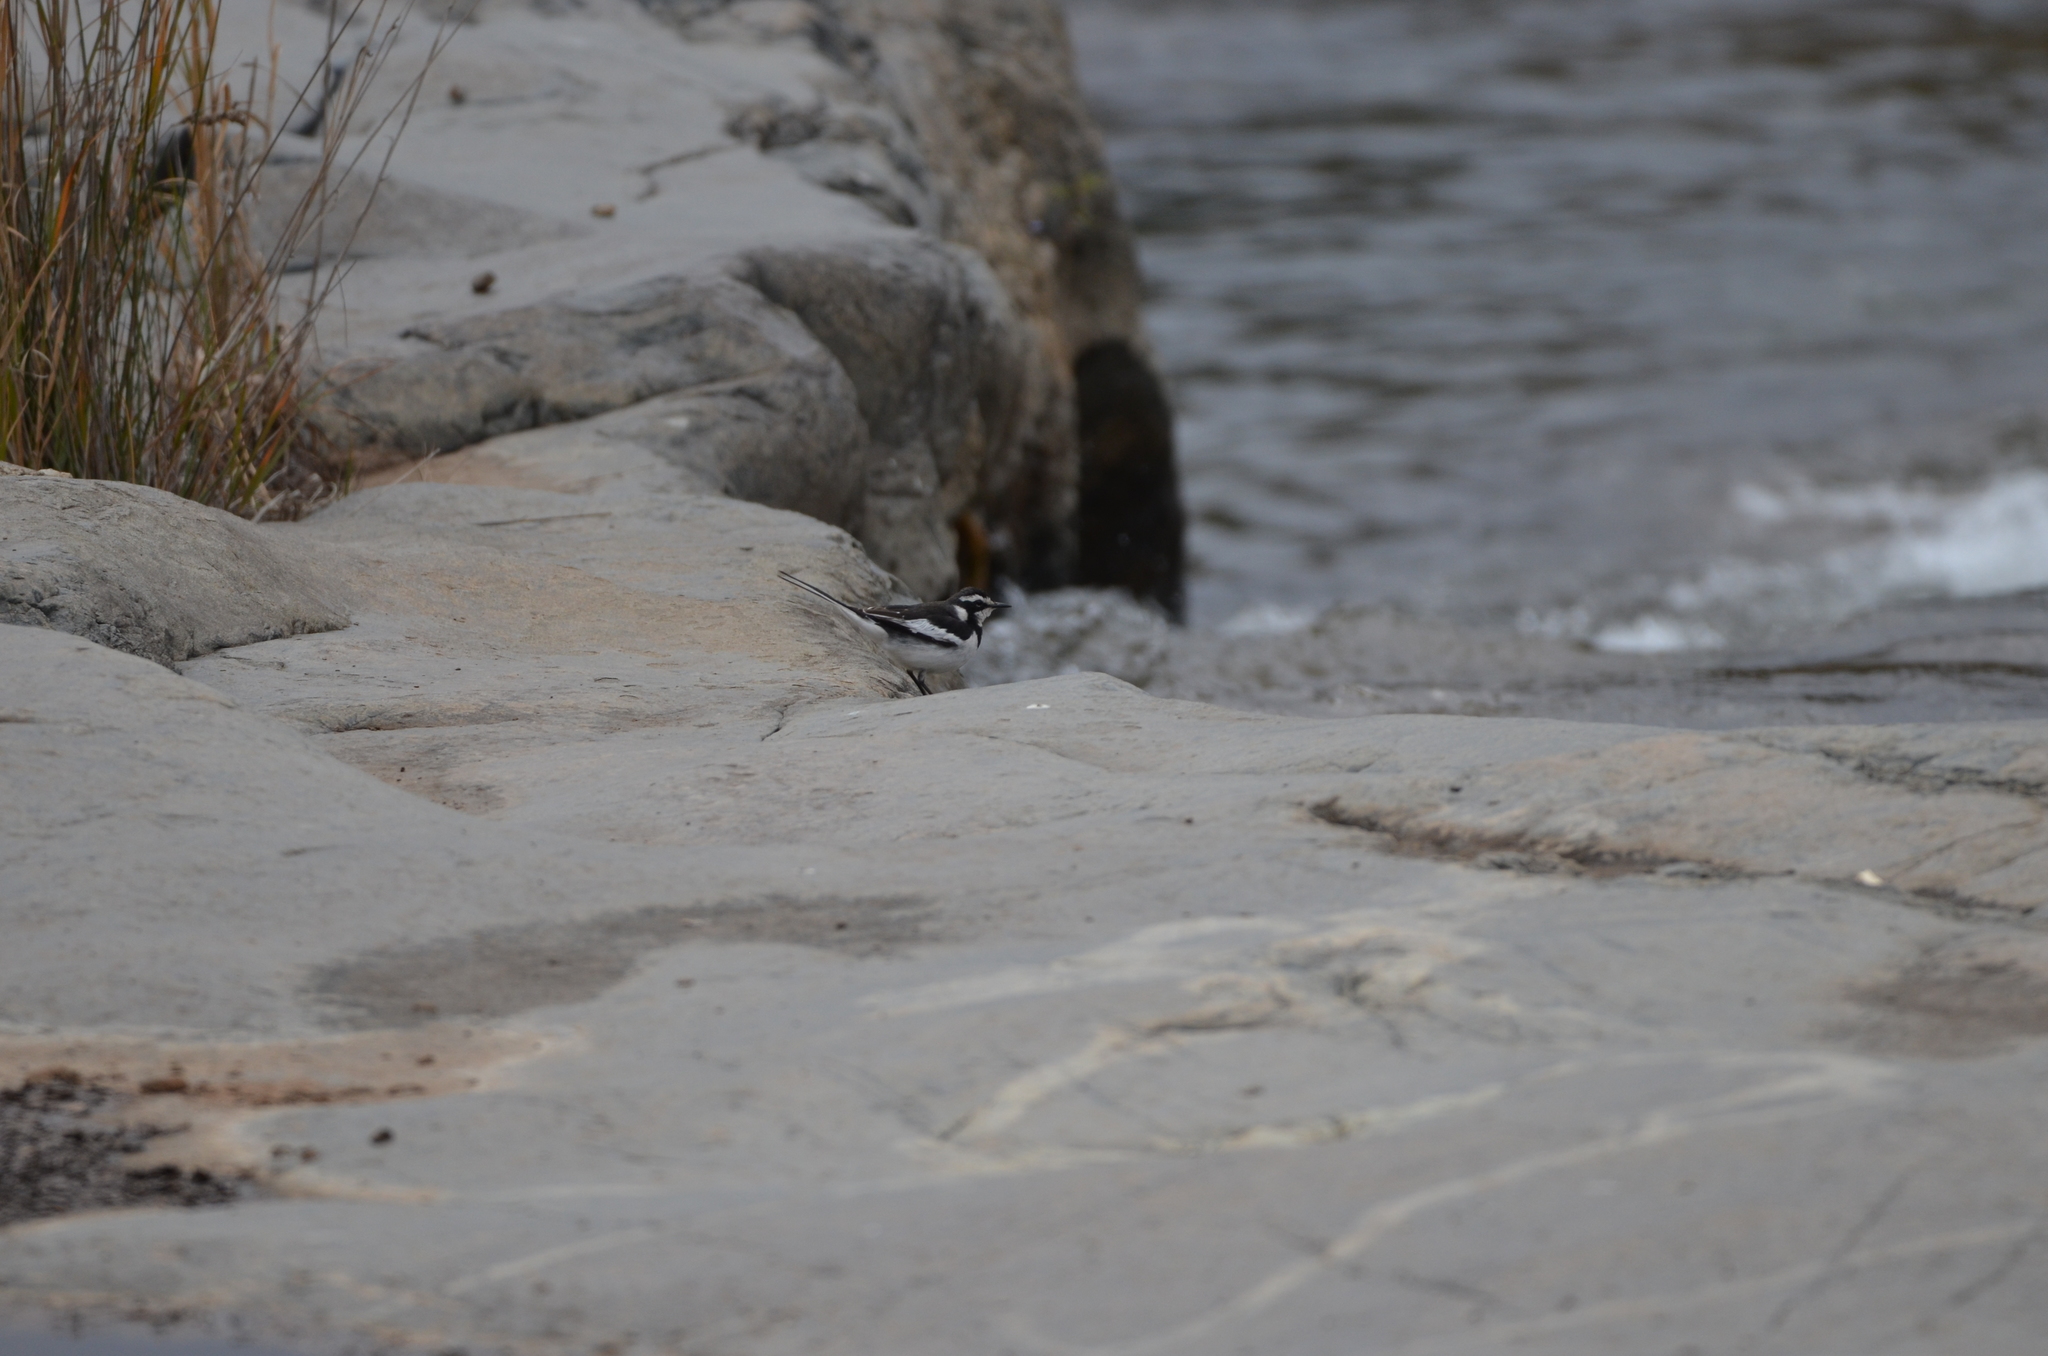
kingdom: Animalia
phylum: Chordata
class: Aves
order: Passeriformes
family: Motacillidae
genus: Motacilla
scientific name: Motacilla aguimp
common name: African pied wagtail
